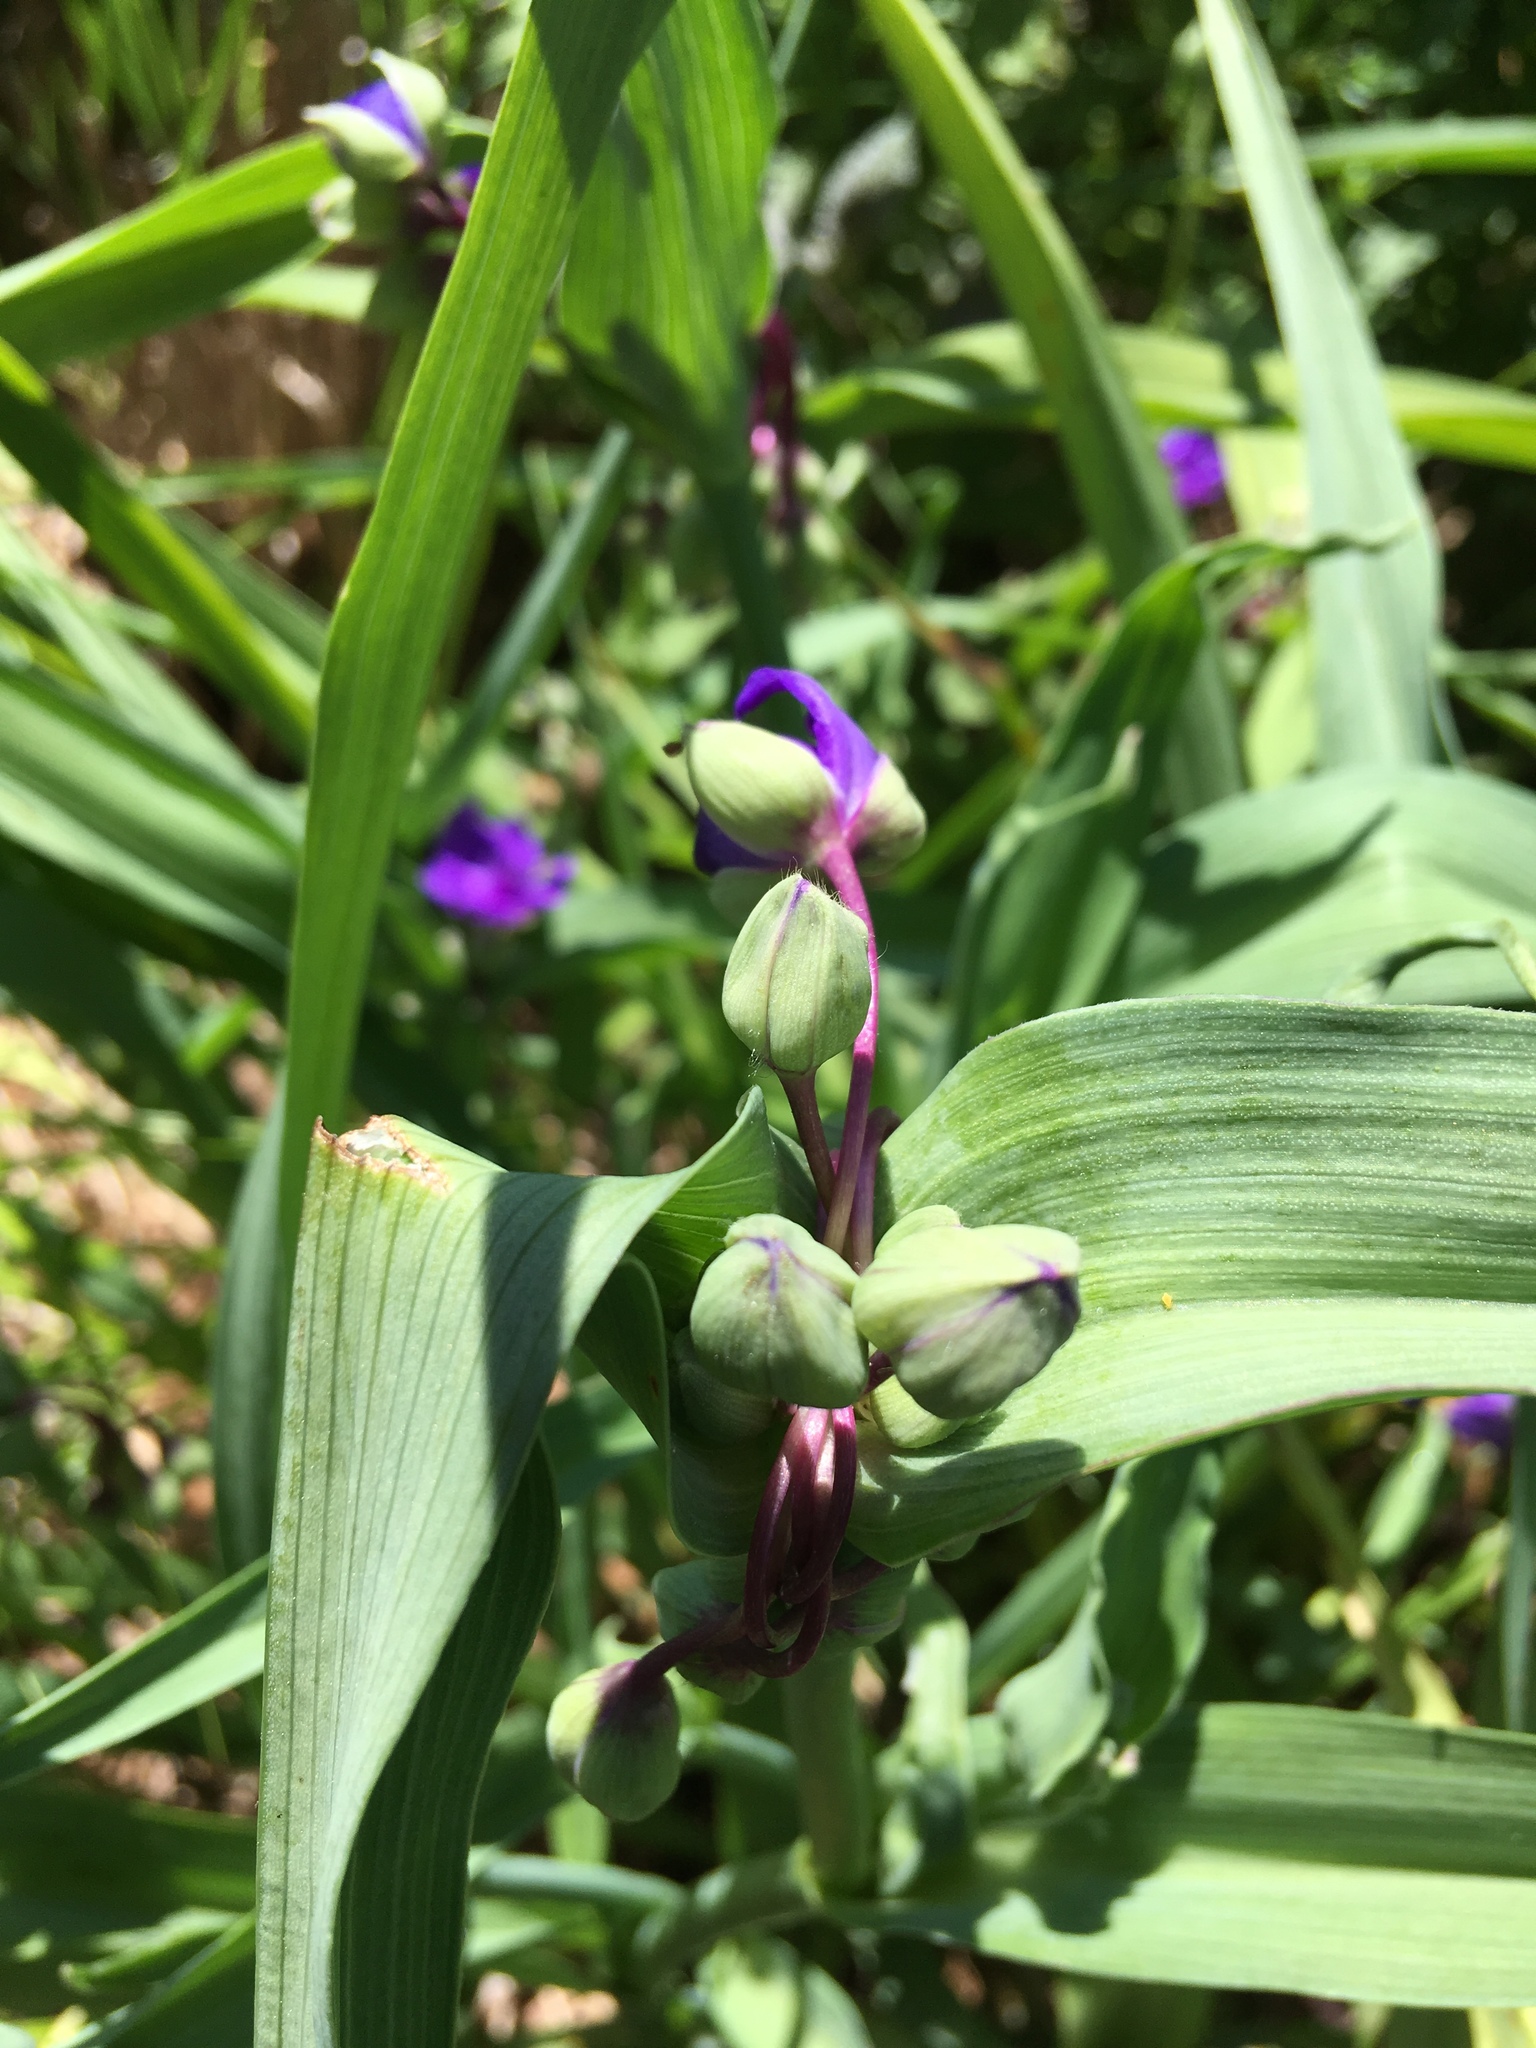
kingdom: Plantae
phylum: Tracheophyta
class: Liliopsida
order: Commelinales
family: Commelinaceae
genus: Tradescantia
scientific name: Tradescantia ohiensis
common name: Ohio spiderwort
